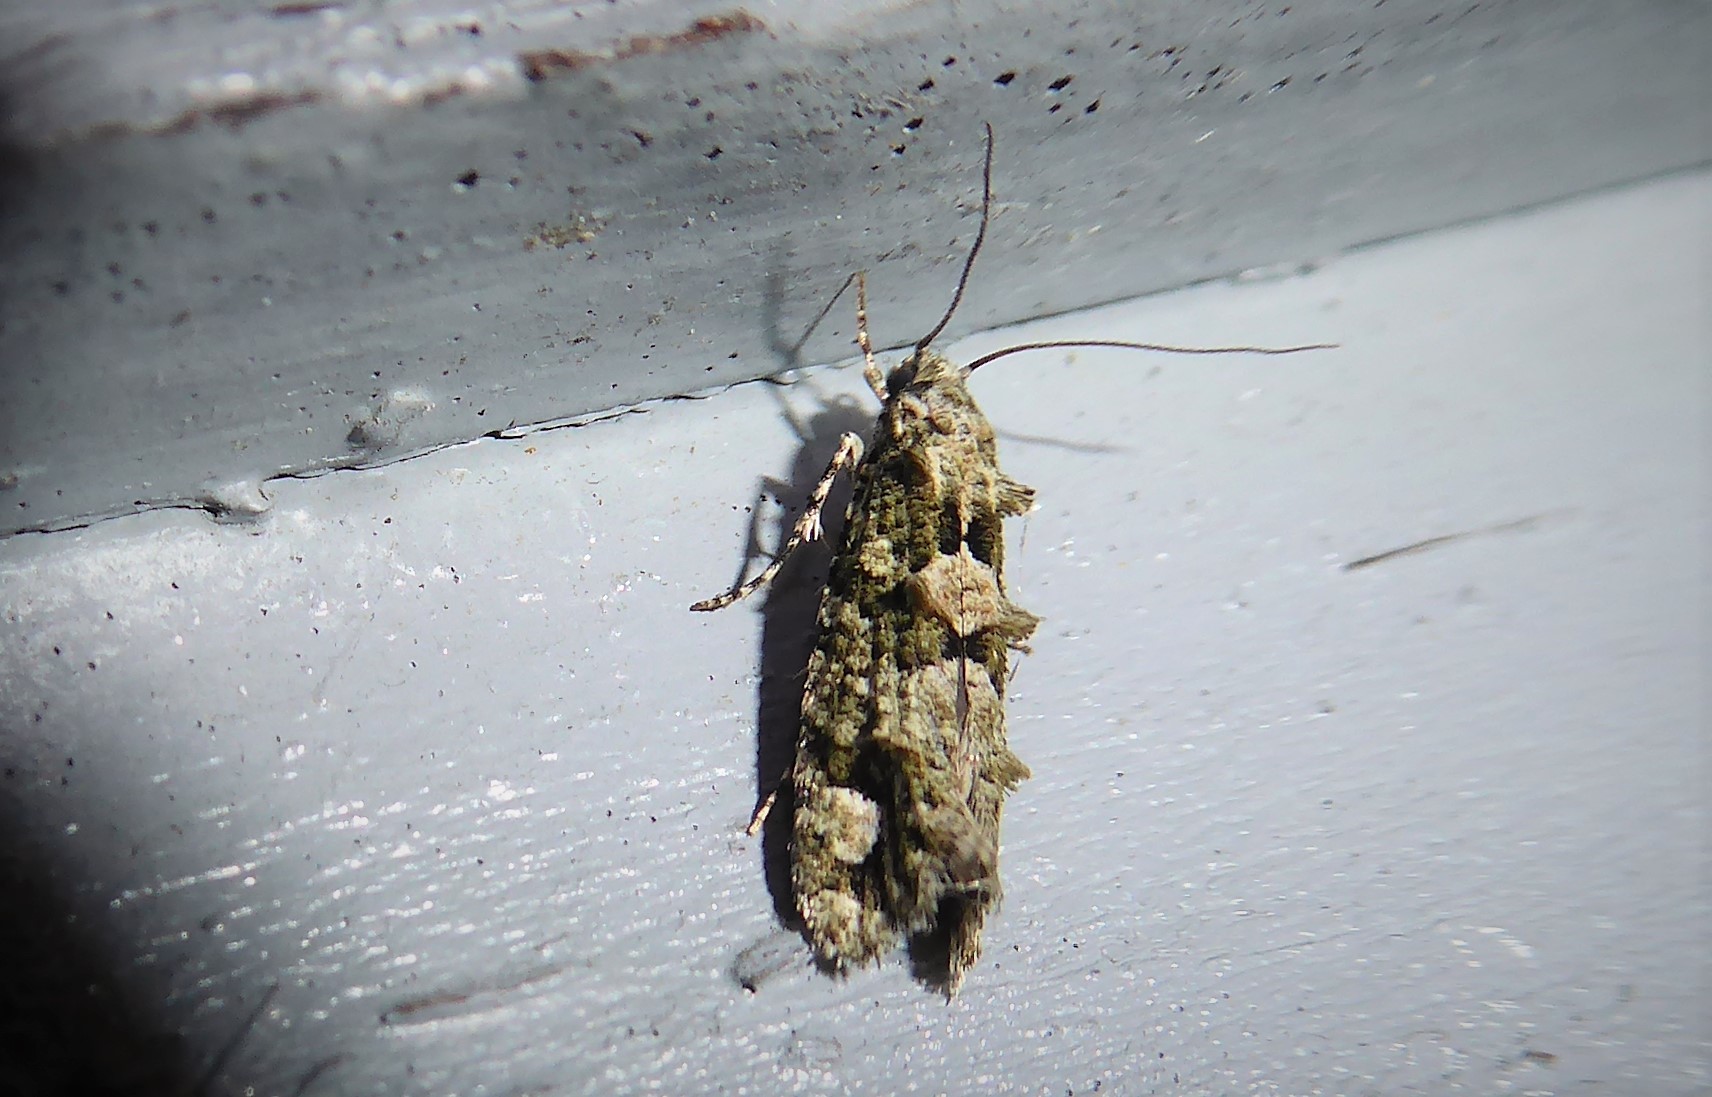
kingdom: Animalia
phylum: Arthropoda
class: Insecta
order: Lepidoptera
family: Tineidae
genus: Lysiphragma
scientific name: Lysiphragma howesii
